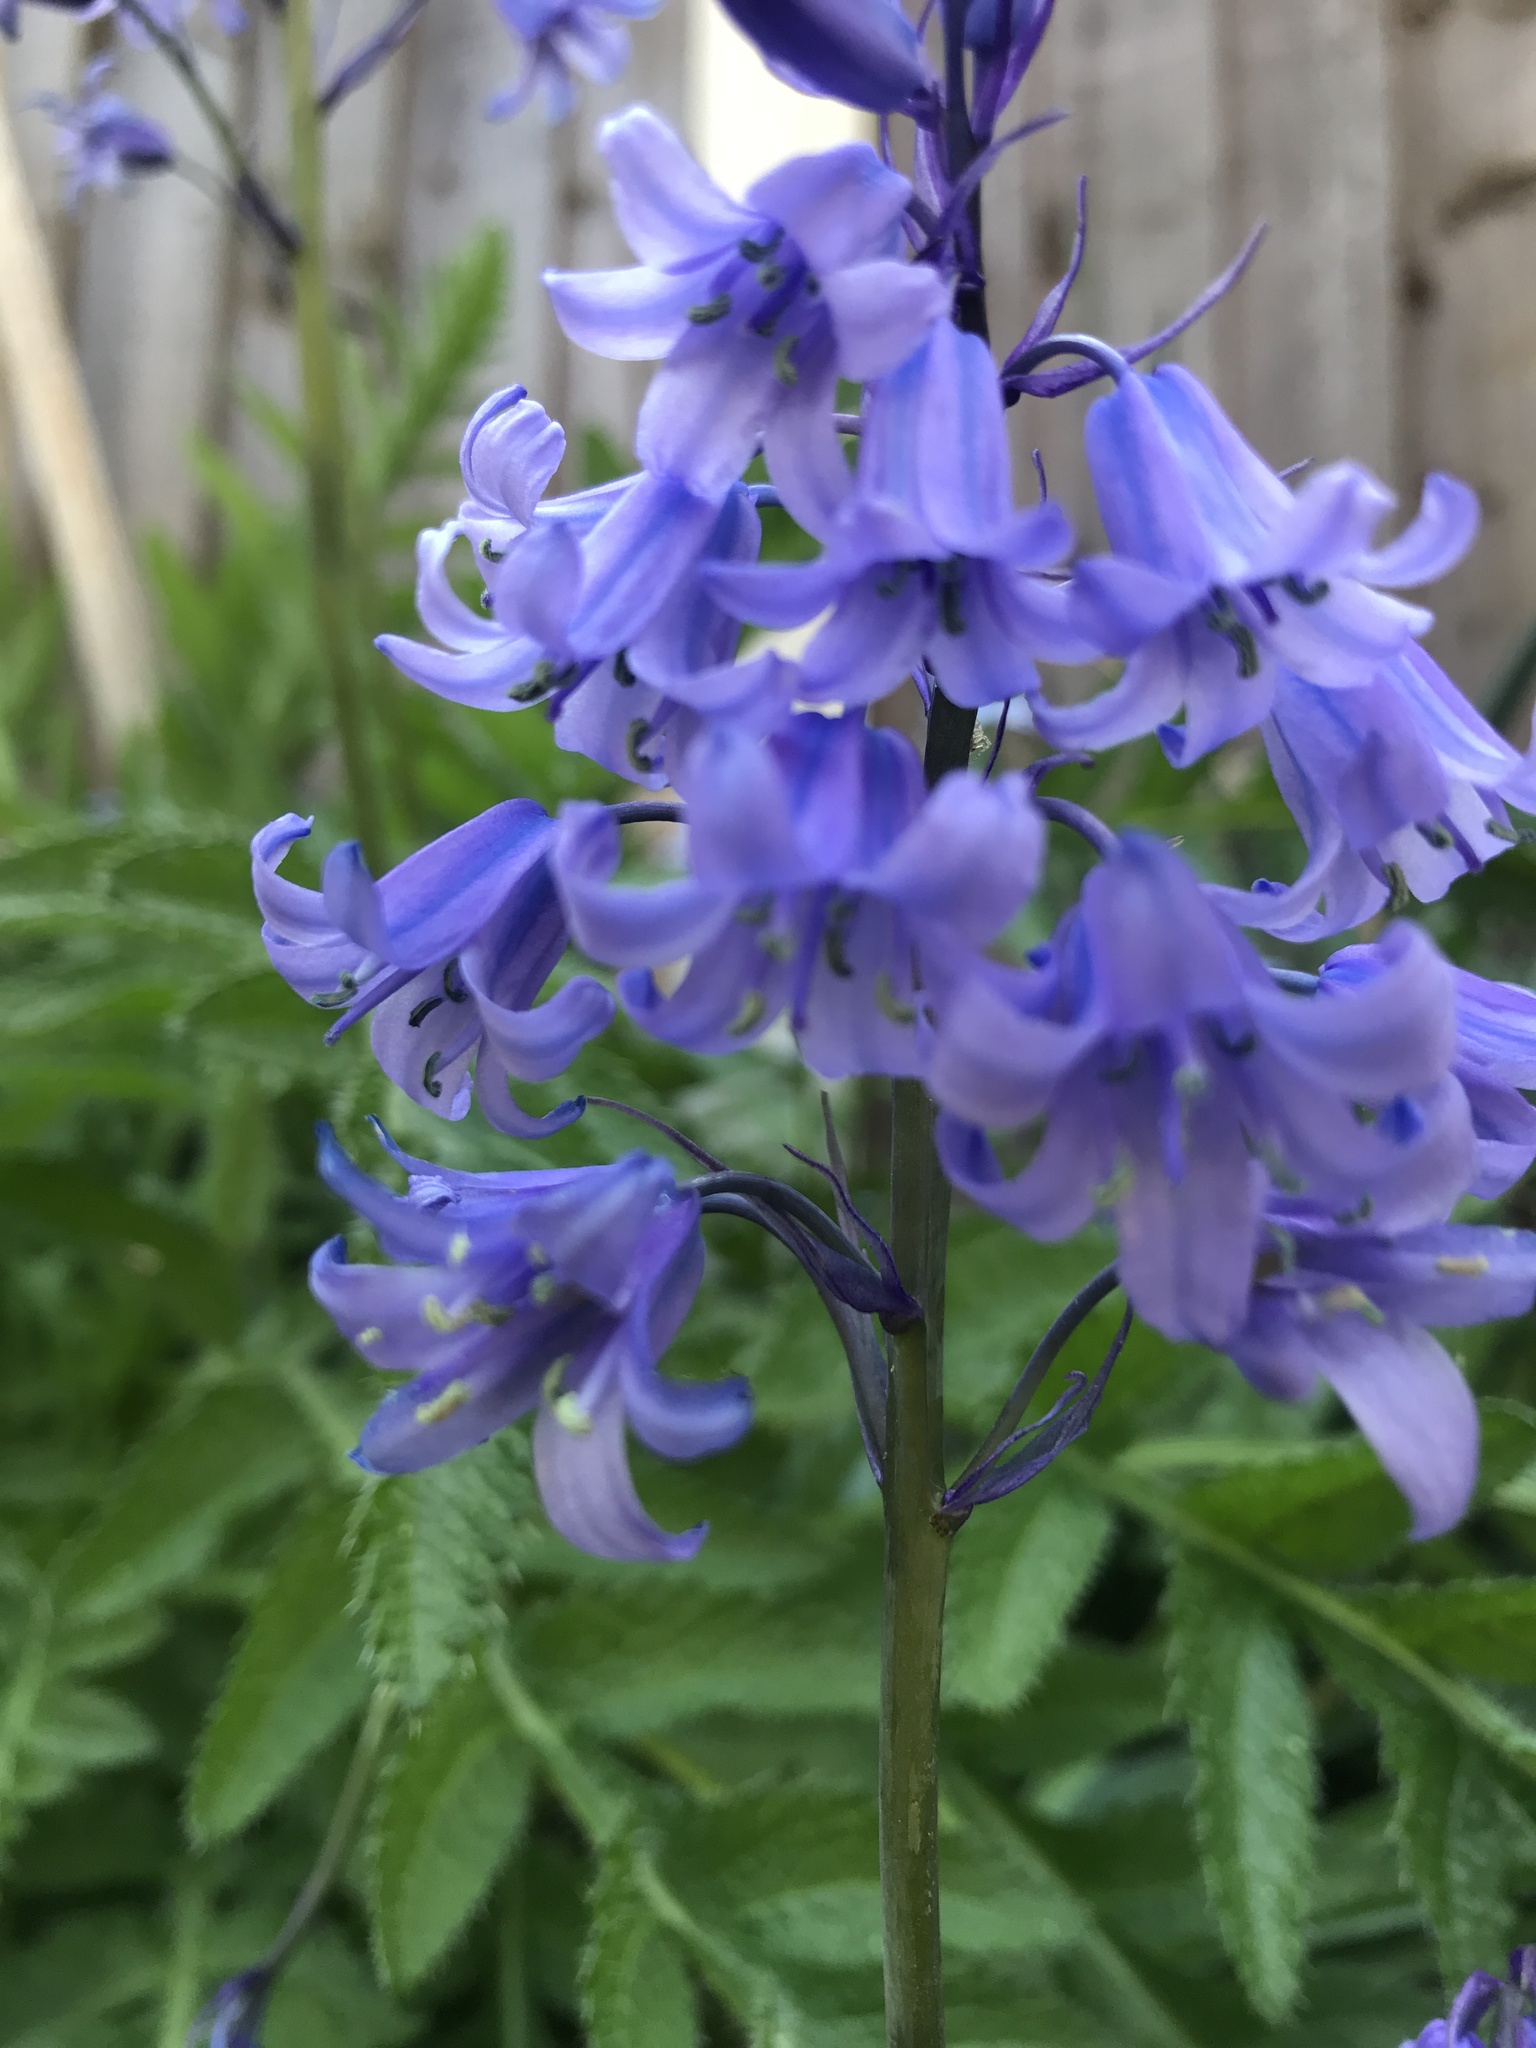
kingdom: Plantae
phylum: Tracheophyta
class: Liliopsida
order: Asparagales
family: Asparagaceae
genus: Hyacinthoides
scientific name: Hyacinthoides hispanica
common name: Spanish bluebell
